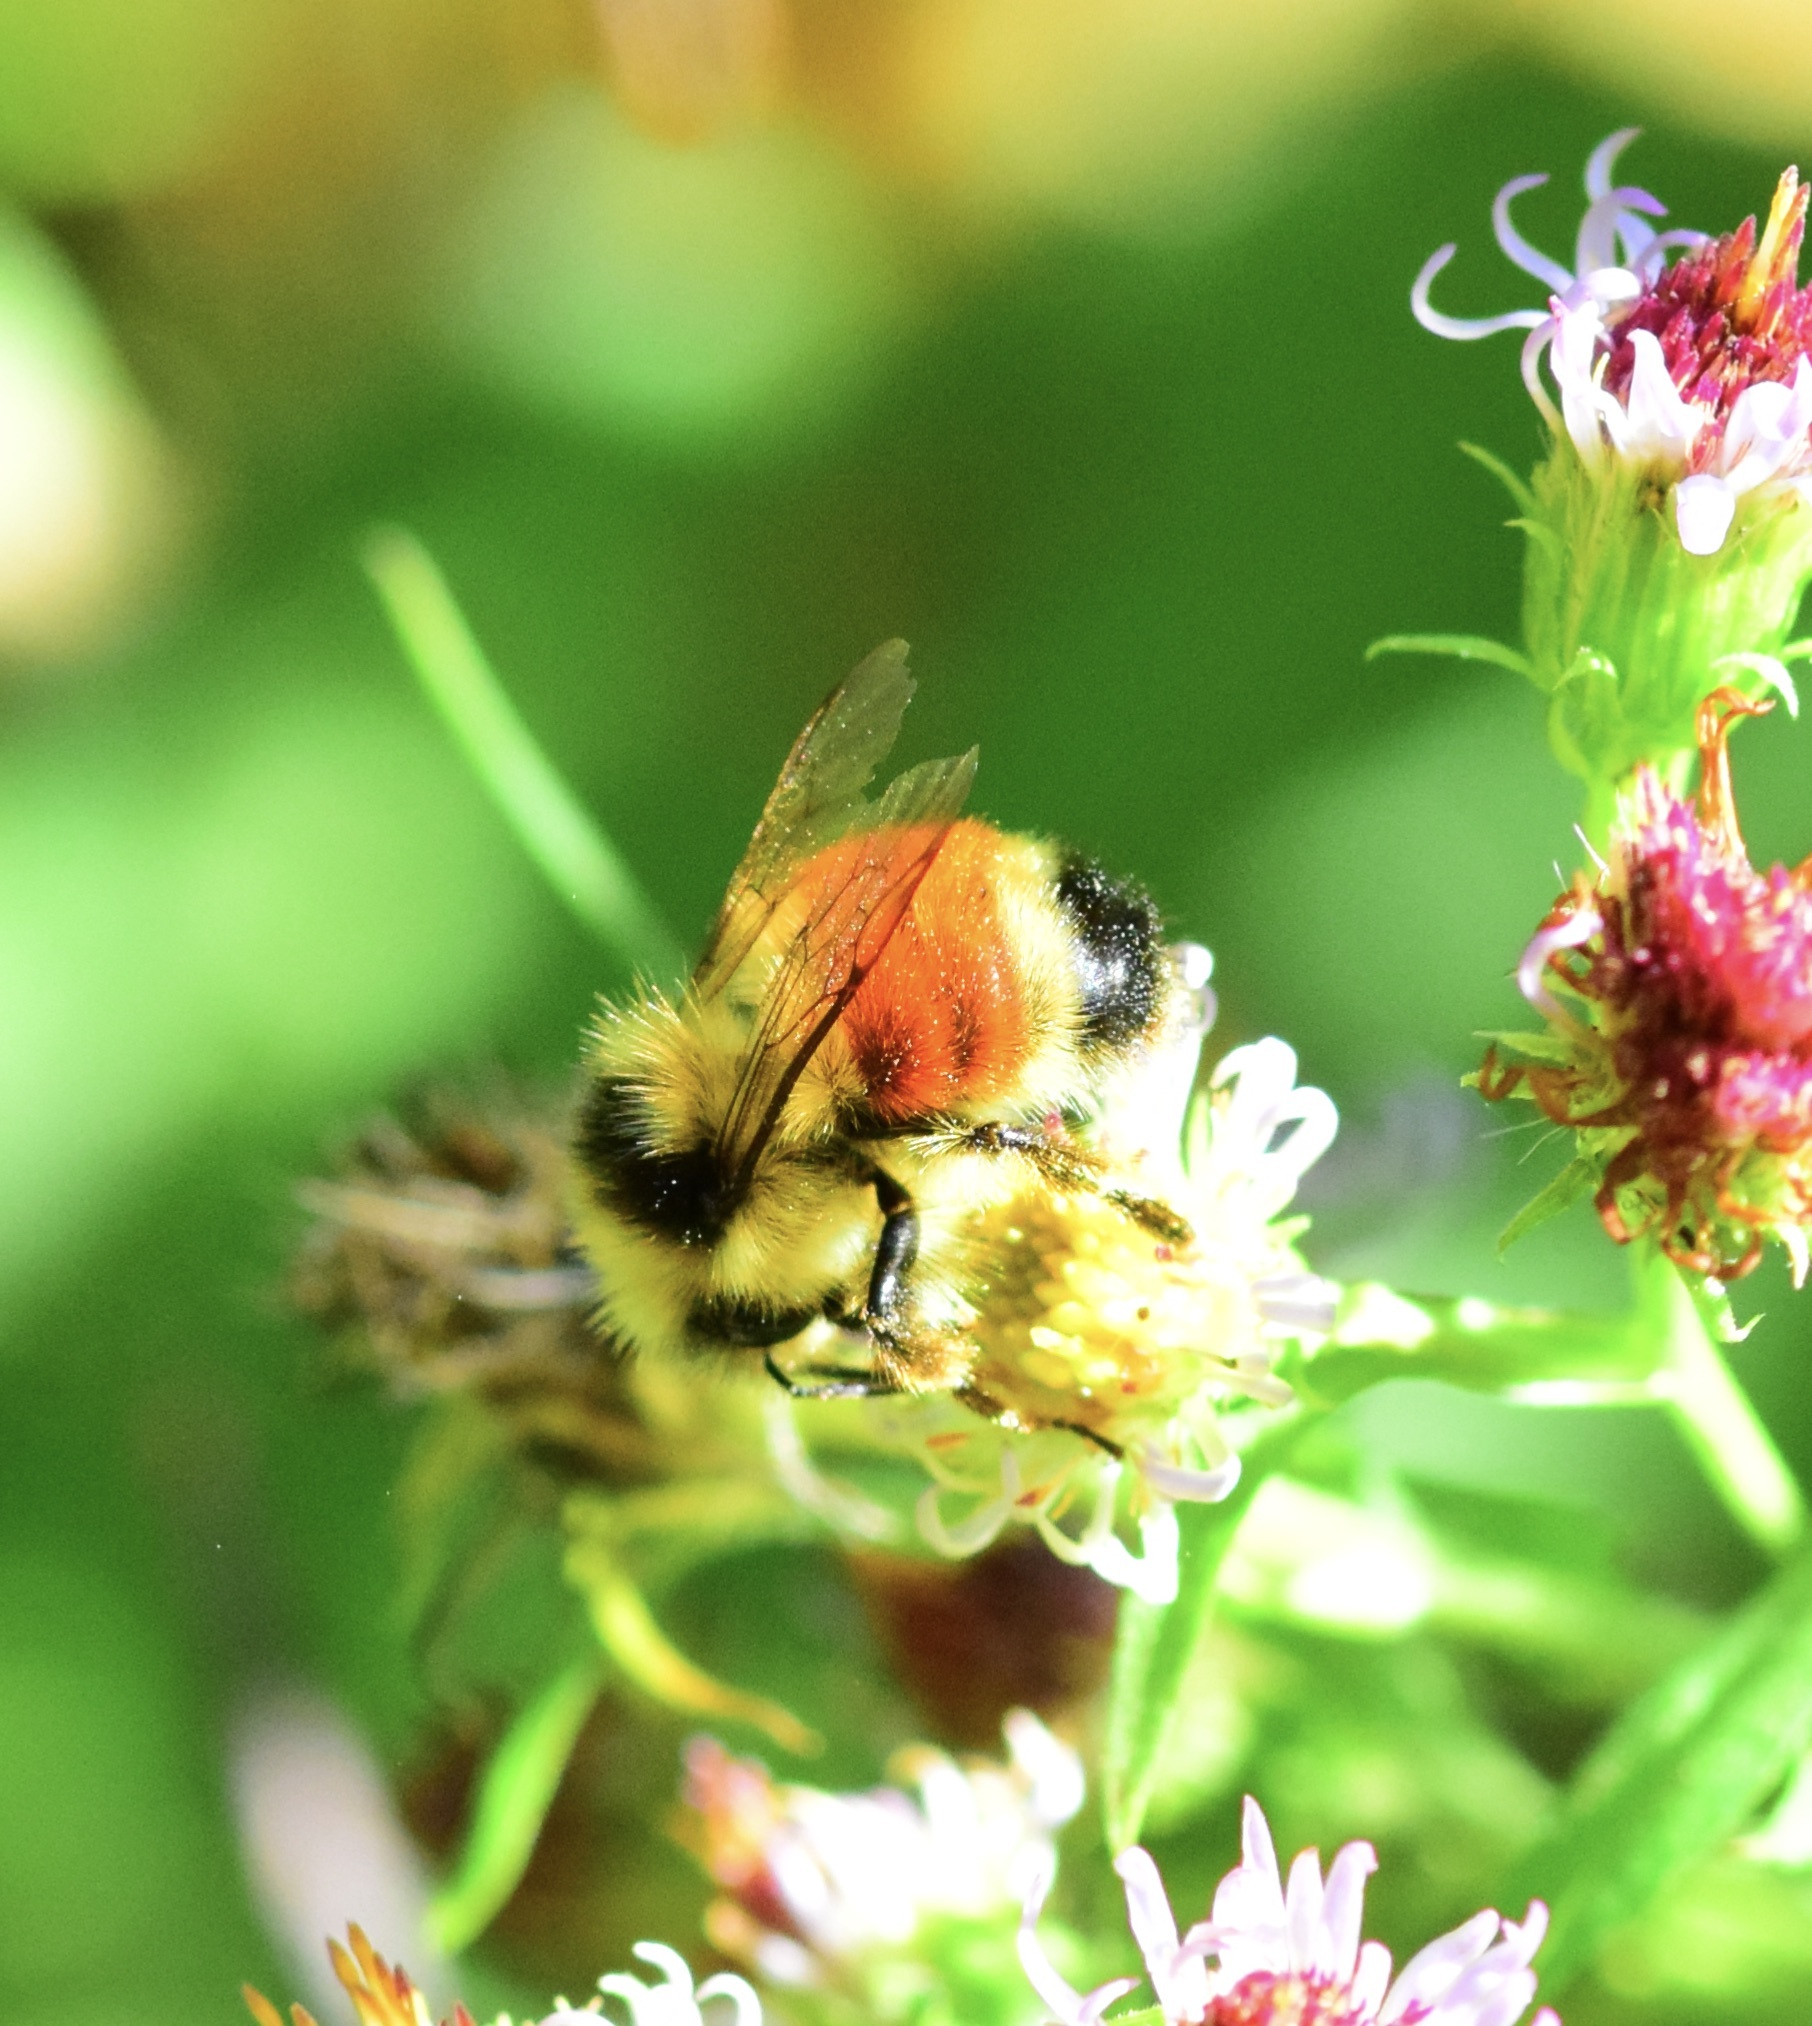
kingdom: Animalia
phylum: Arthropoda
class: Insecta
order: Hymenoptera
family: Apidae
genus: Bombus
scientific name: Bombus ternarius
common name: Tri-colored bumble bee
